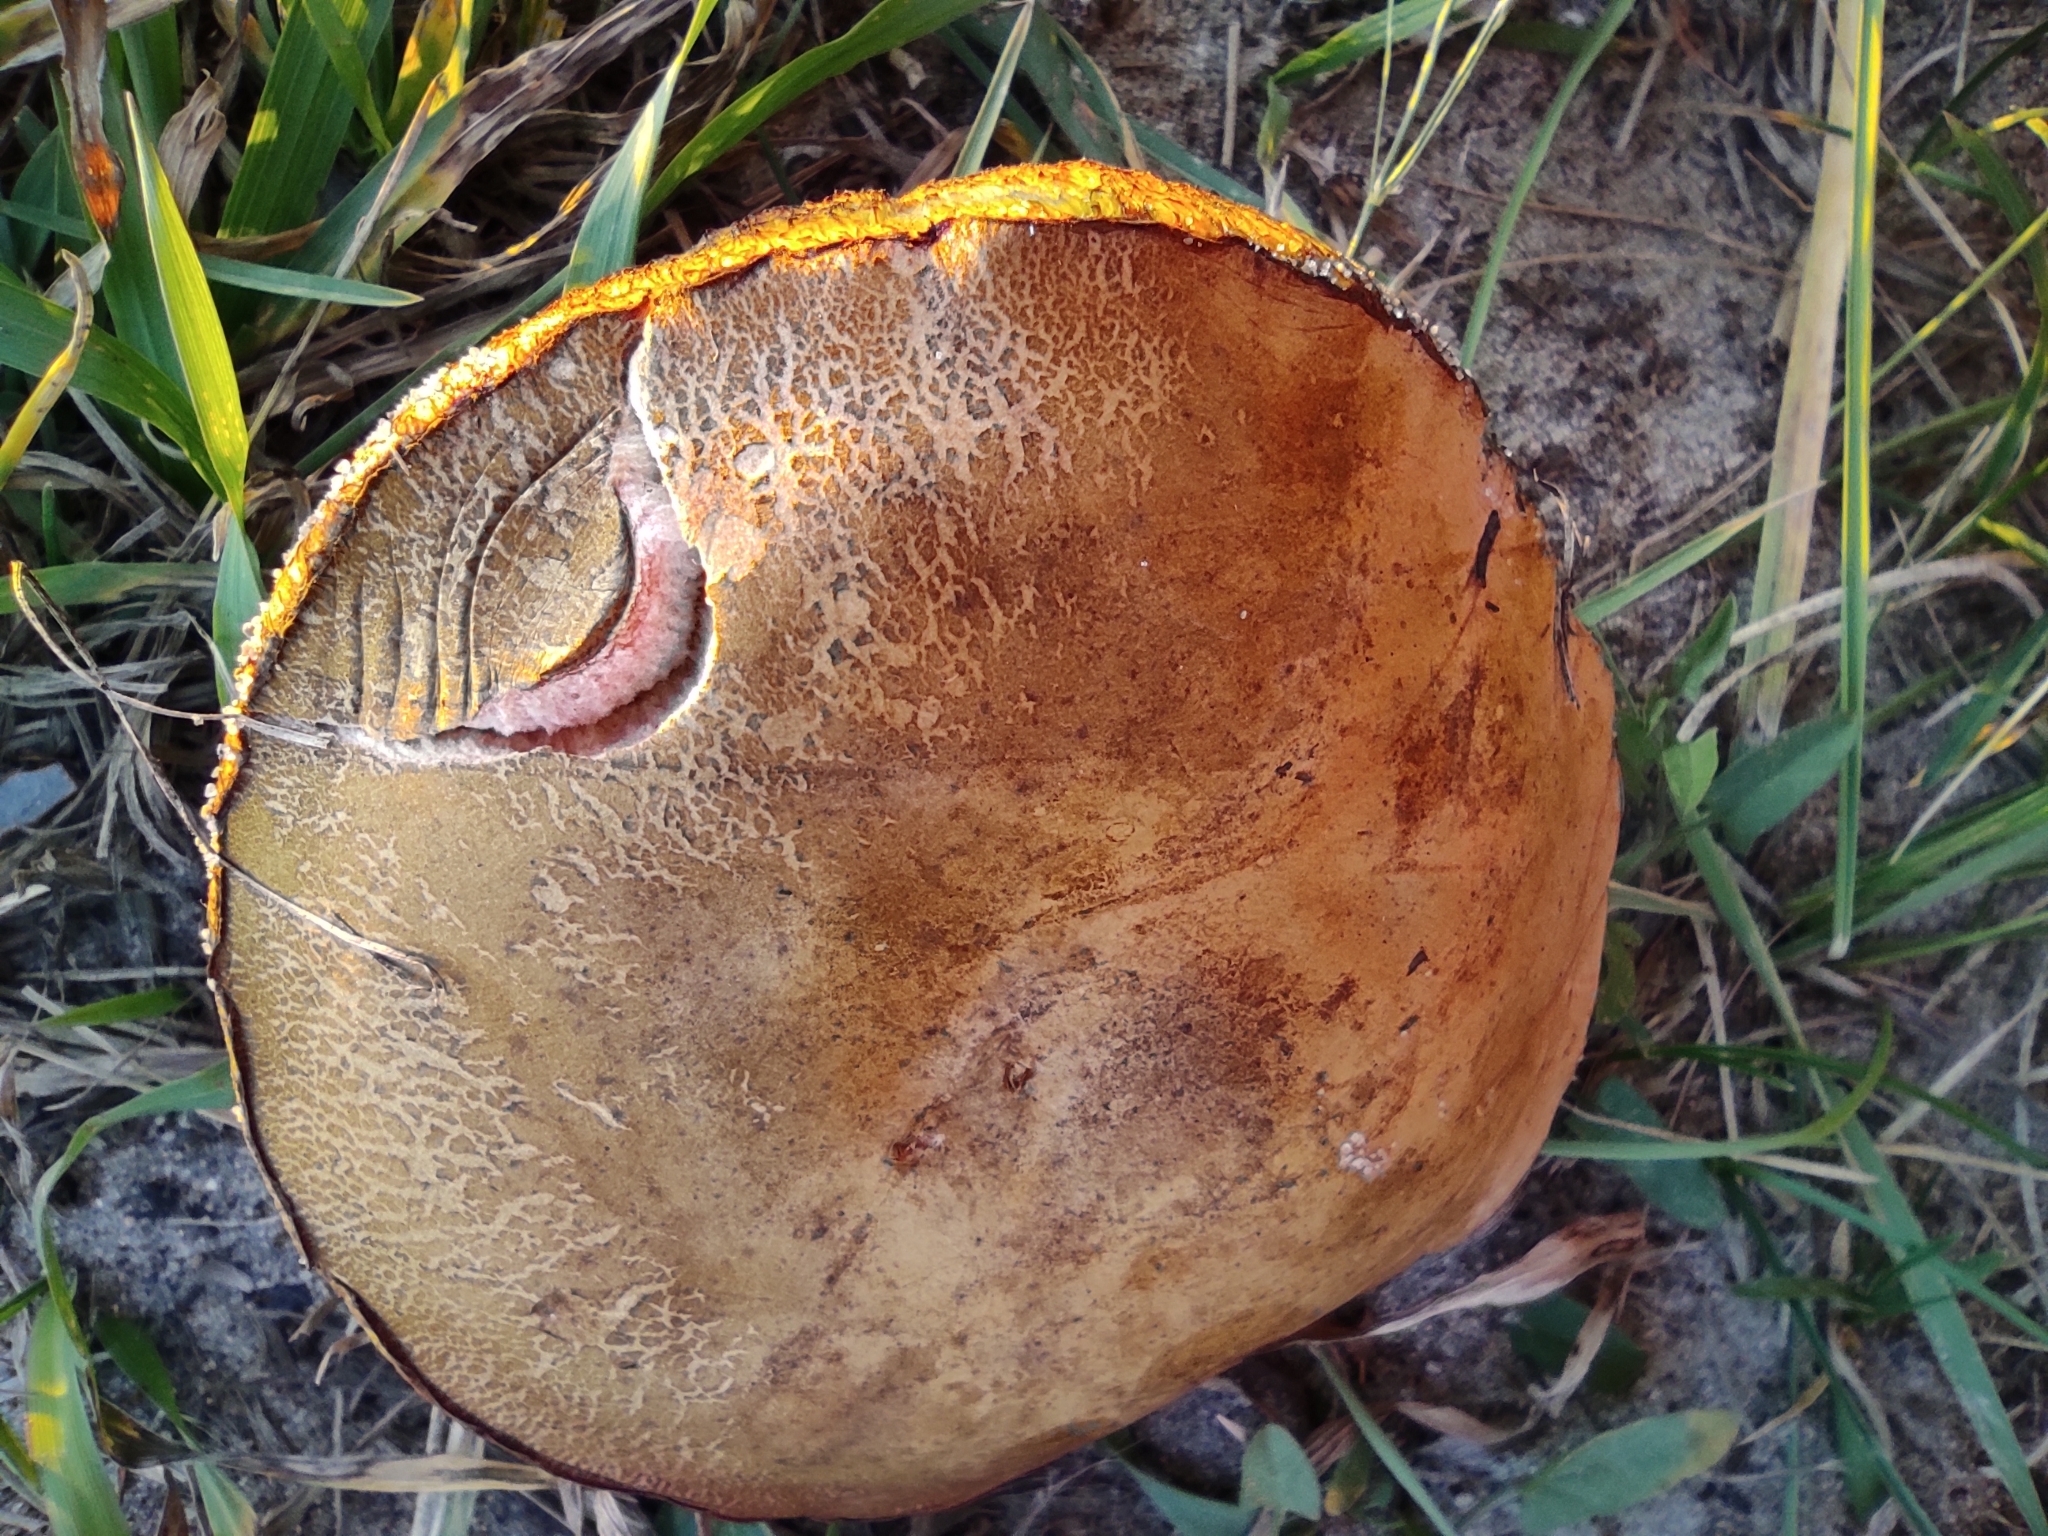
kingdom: Fungi
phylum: Basidiomycota
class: Agaricomycetes
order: Boletales
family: Boletaceae
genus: Suillellus
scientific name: Suillellus luridus
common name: Lurid bolete
